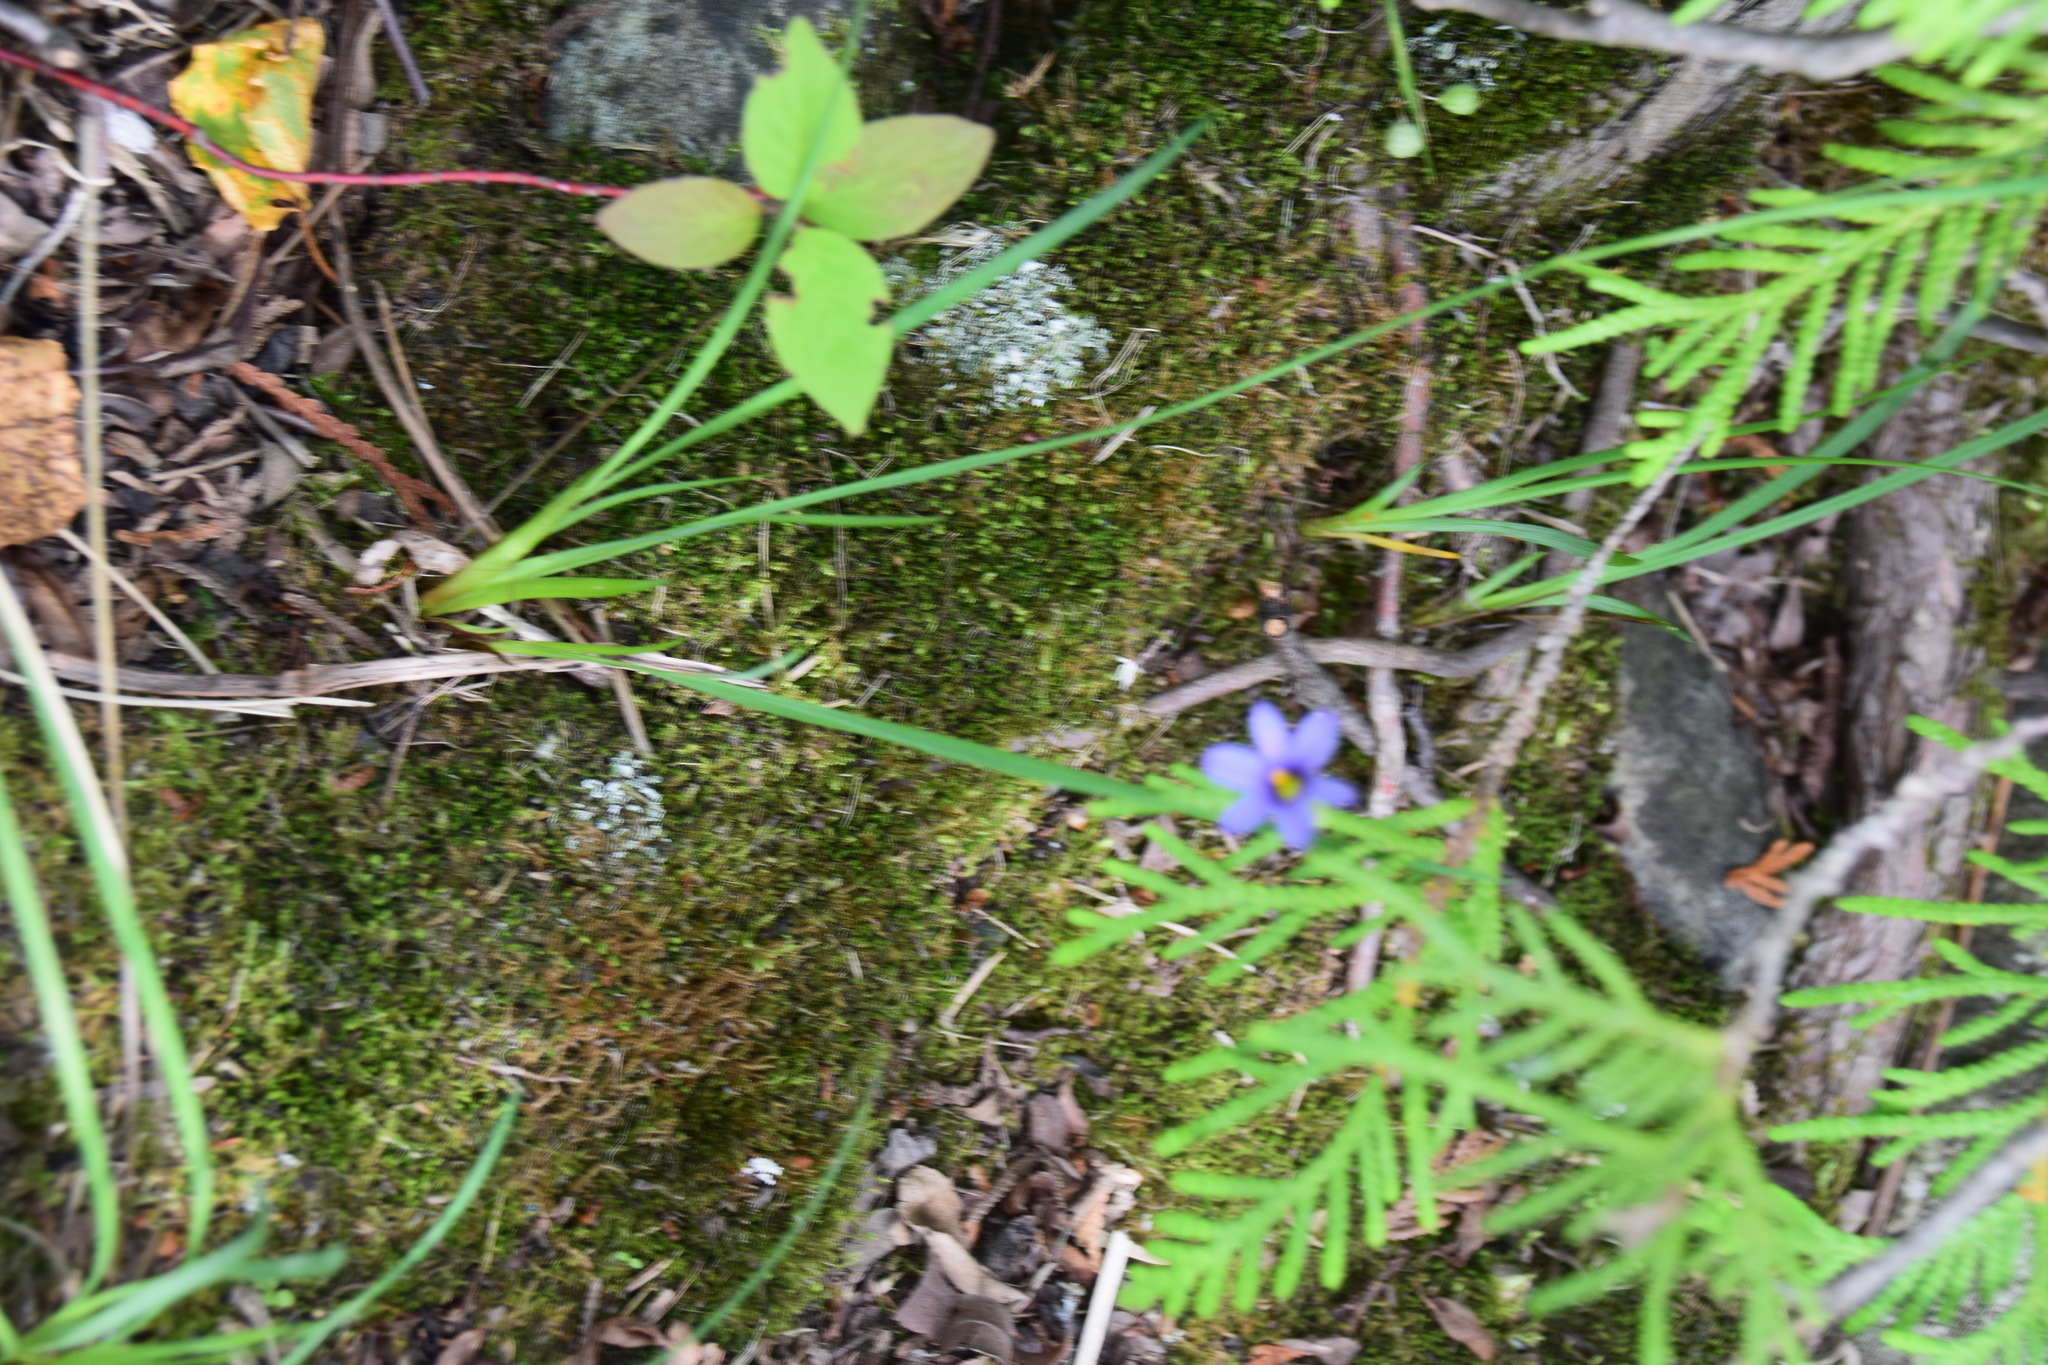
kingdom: Plantae
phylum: Tracheophyta
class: Liliopsida
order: Asparagales
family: Iridaceae
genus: Sisyrinchium
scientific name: Sisyrinchium montanum
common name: American blue-eyed-grass
